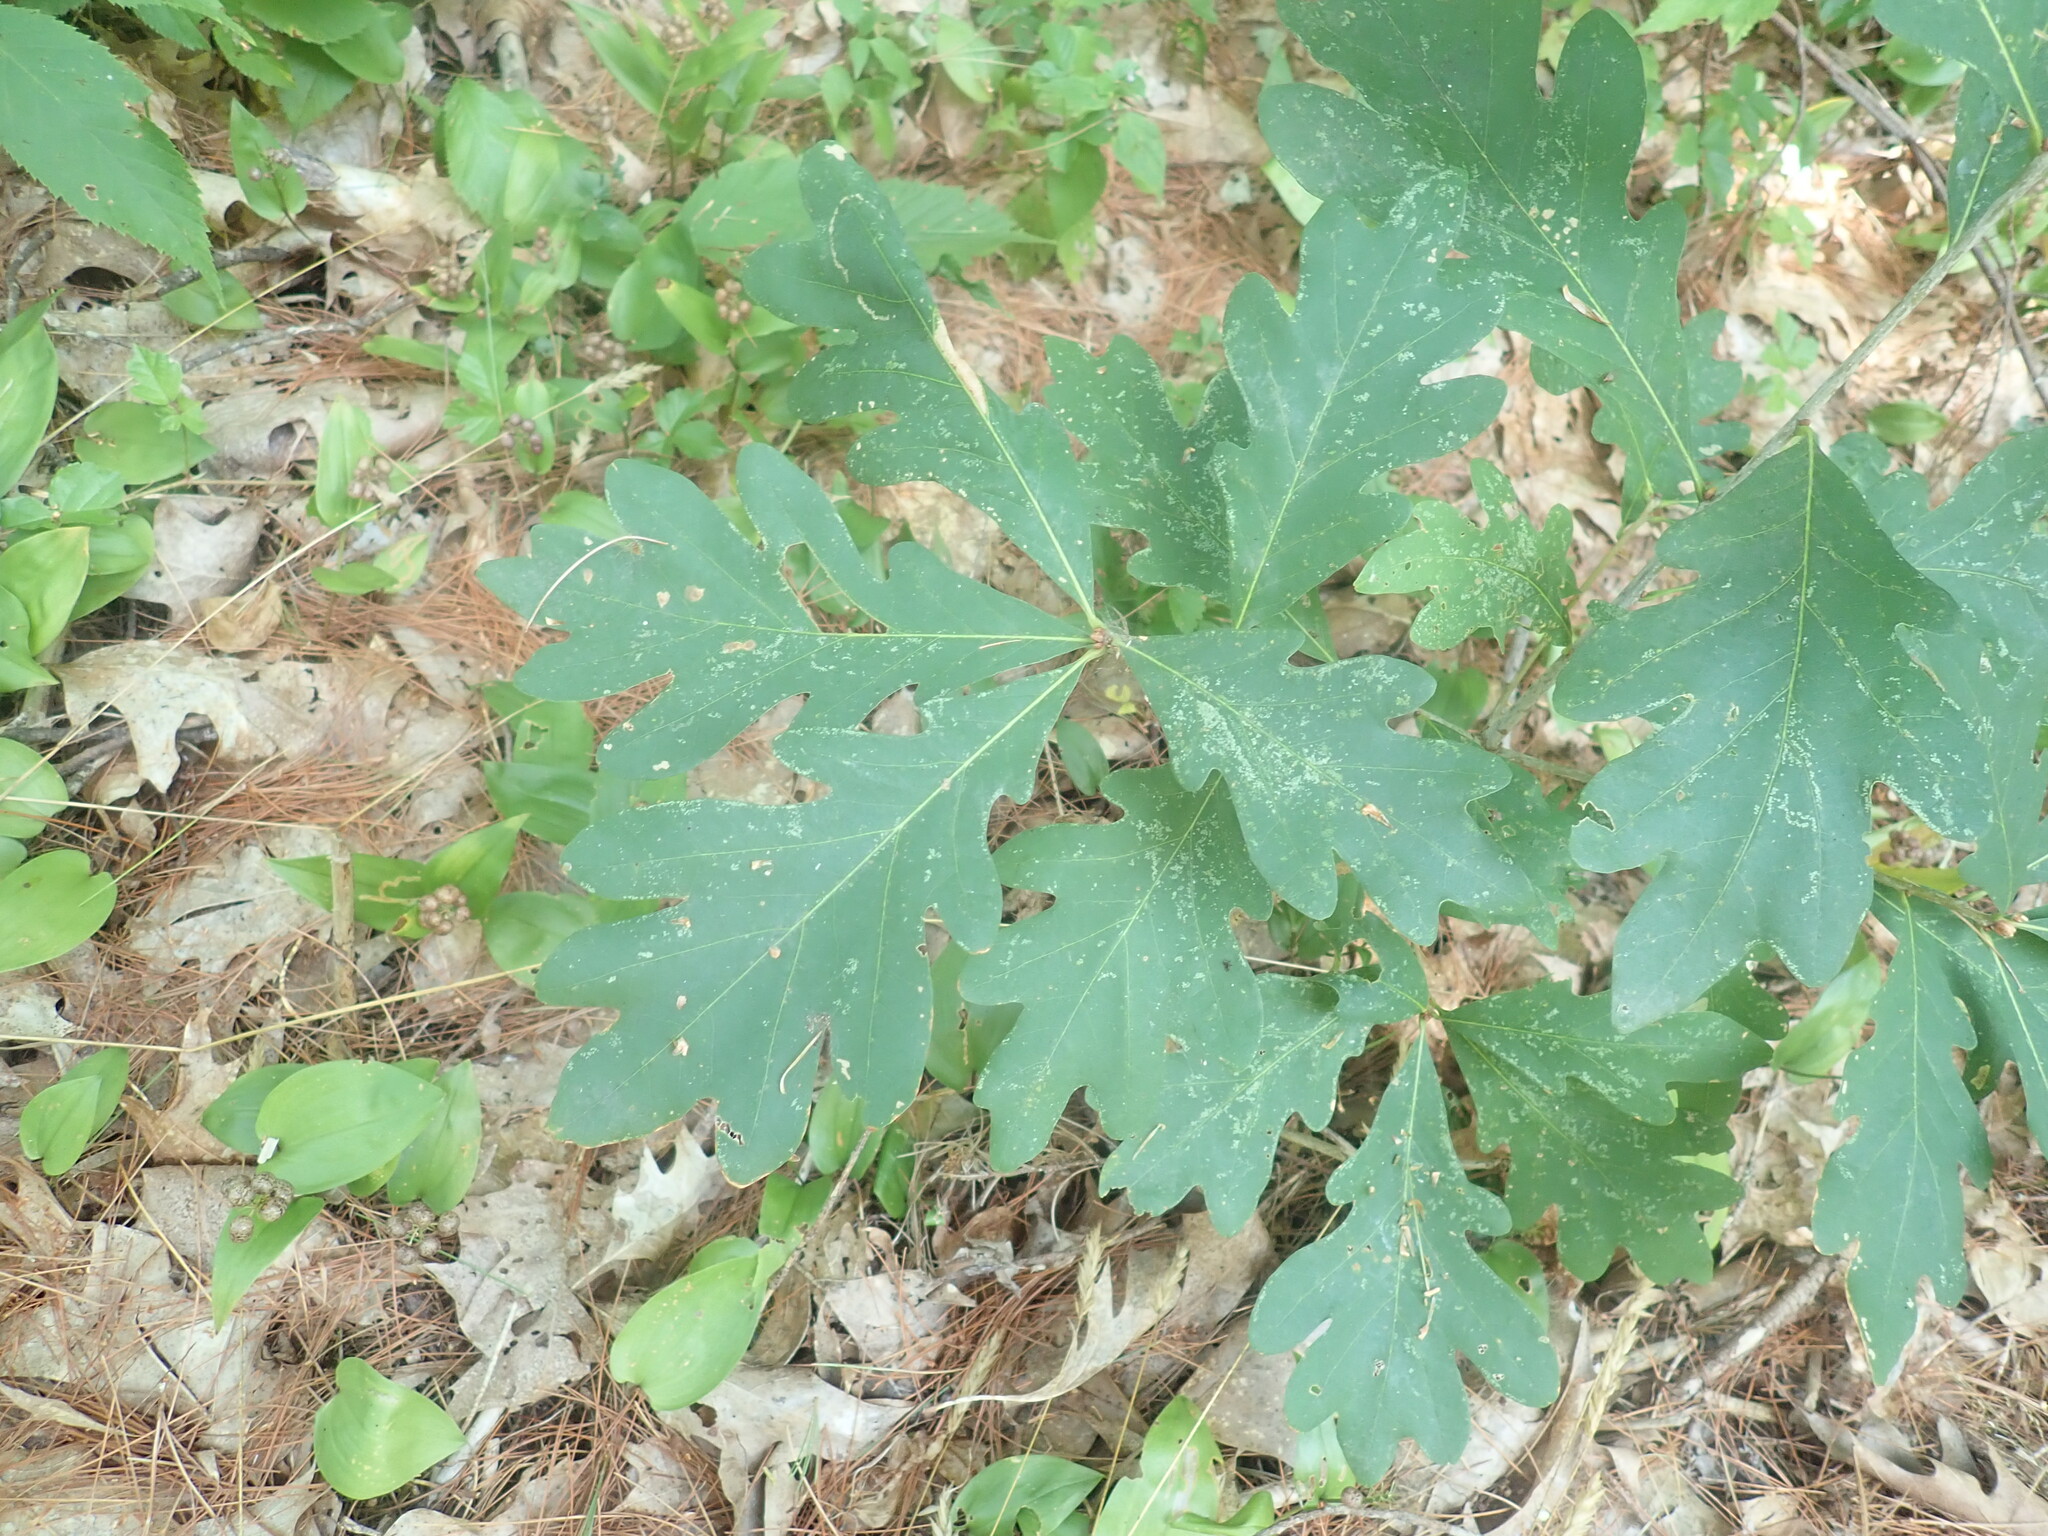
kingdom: Plantae
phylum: Tracheophyta
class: Magnoliopsida
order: Fagales
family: Fagaceae
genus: Quercus
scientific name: Quercus alba
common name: White oak
